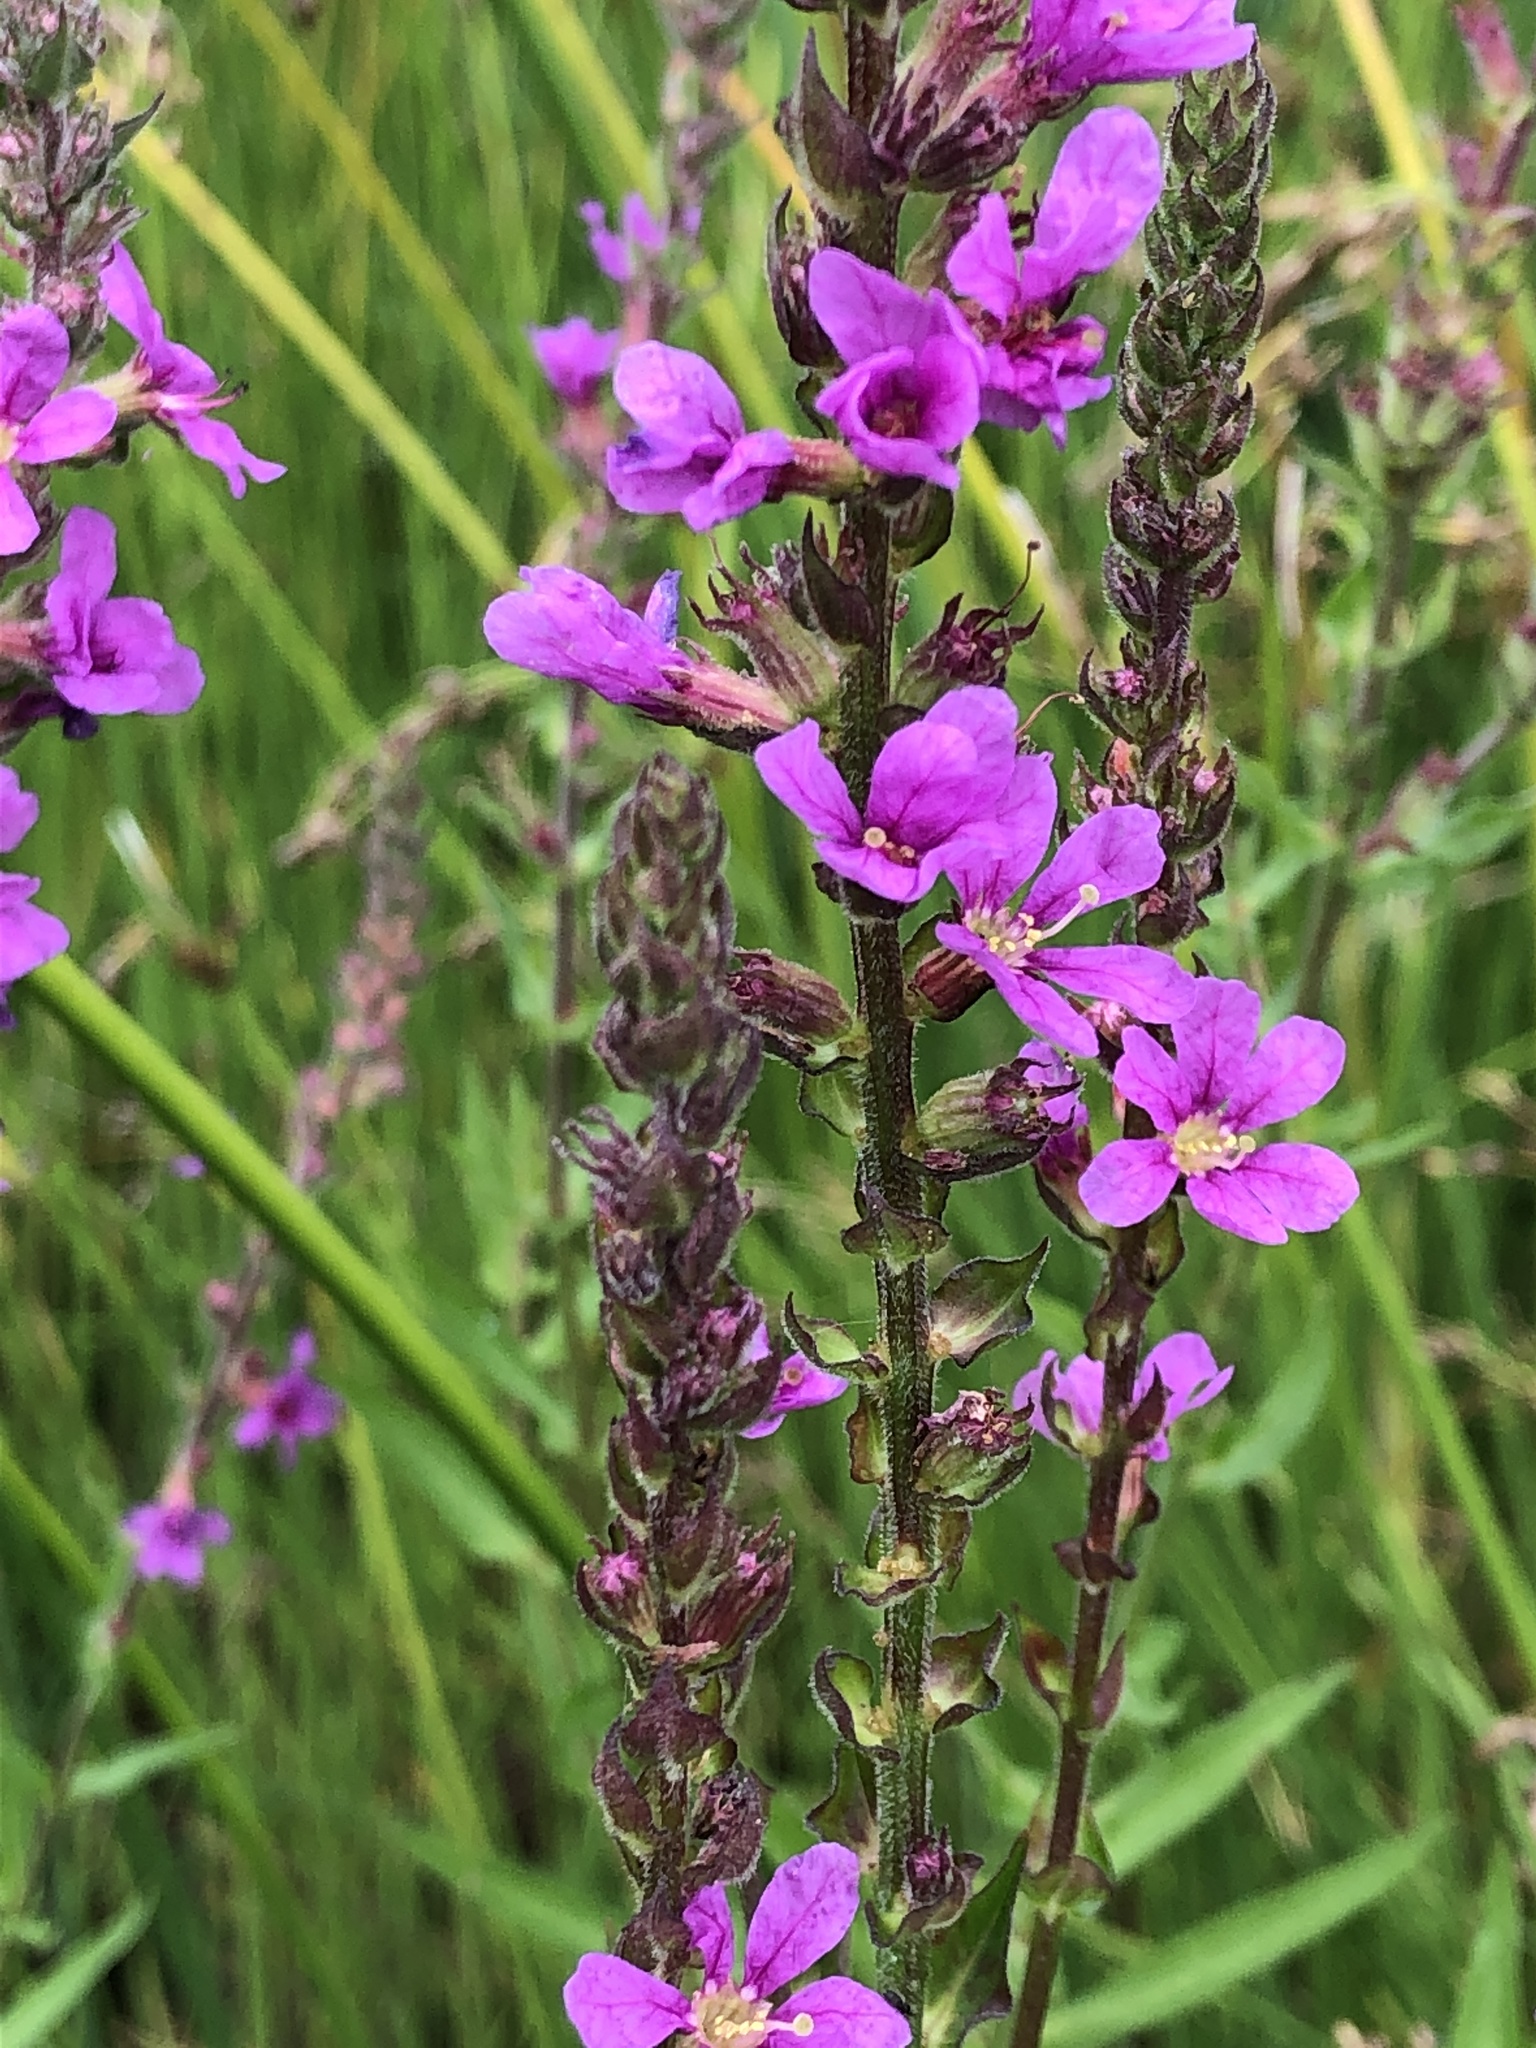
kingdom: Plantae
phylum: Tracheophyta
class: Magnoliopsida
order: Myrtales
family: Lythraceae
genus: Lythrum
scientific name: Lythrum salicaria
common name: Purple loosestrife
